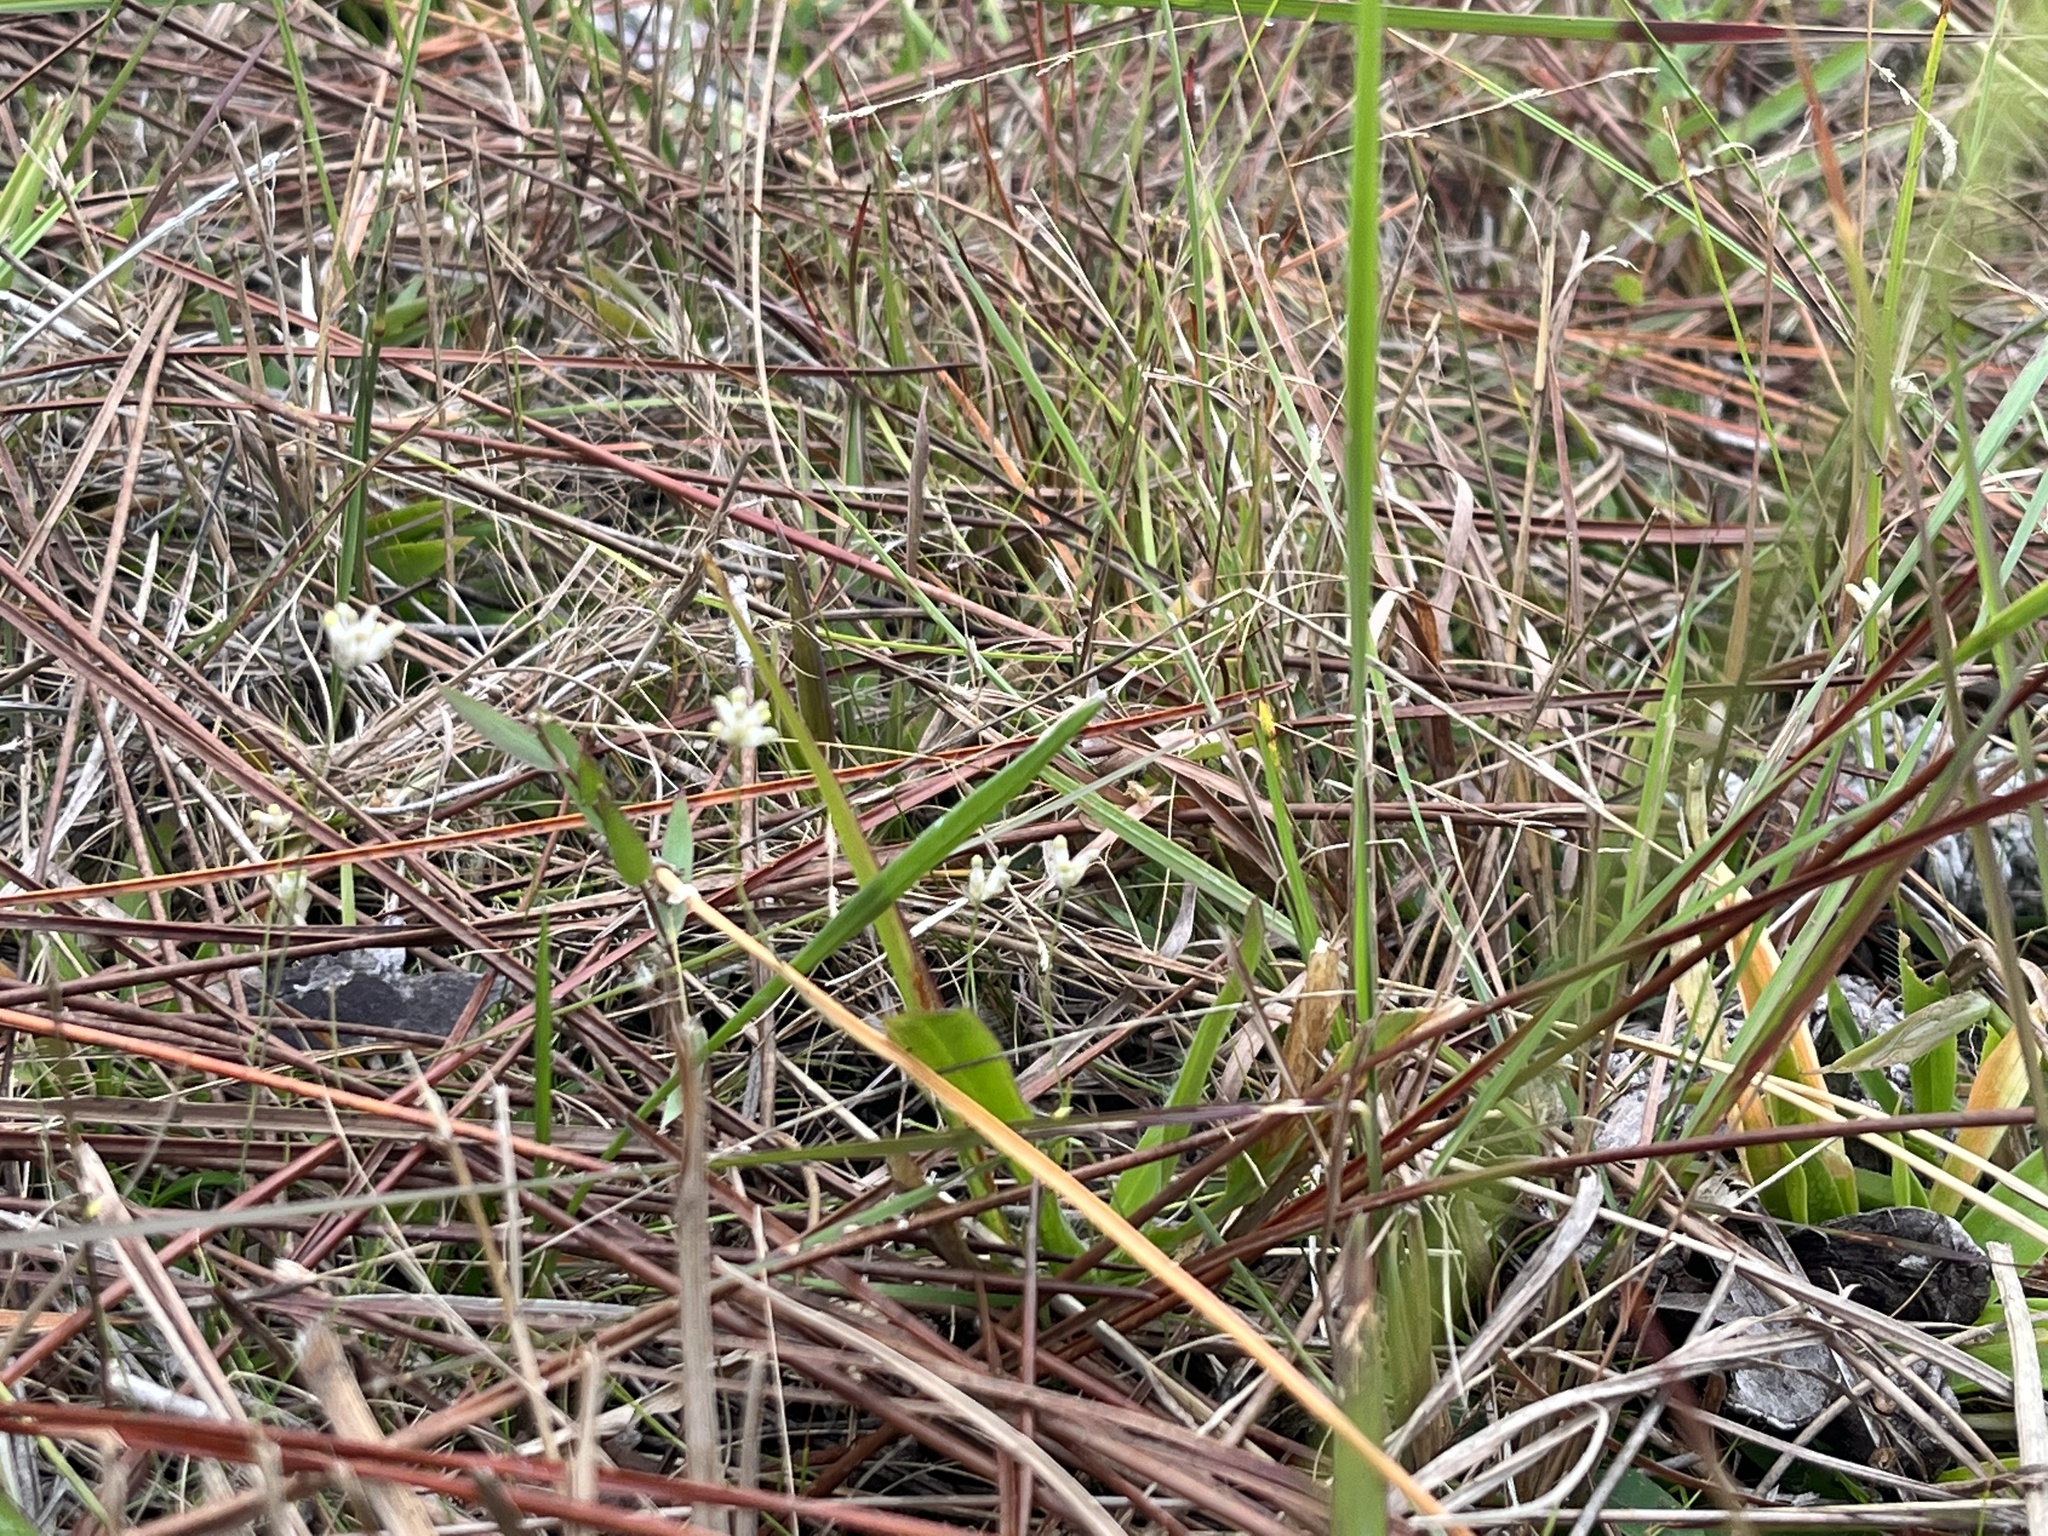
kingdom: Plantae
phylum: Tracheophyta
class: Liliopsida
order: Dioscoreales
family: Burmanniaceae
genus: Burmannia
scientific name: Burmannia capitata
